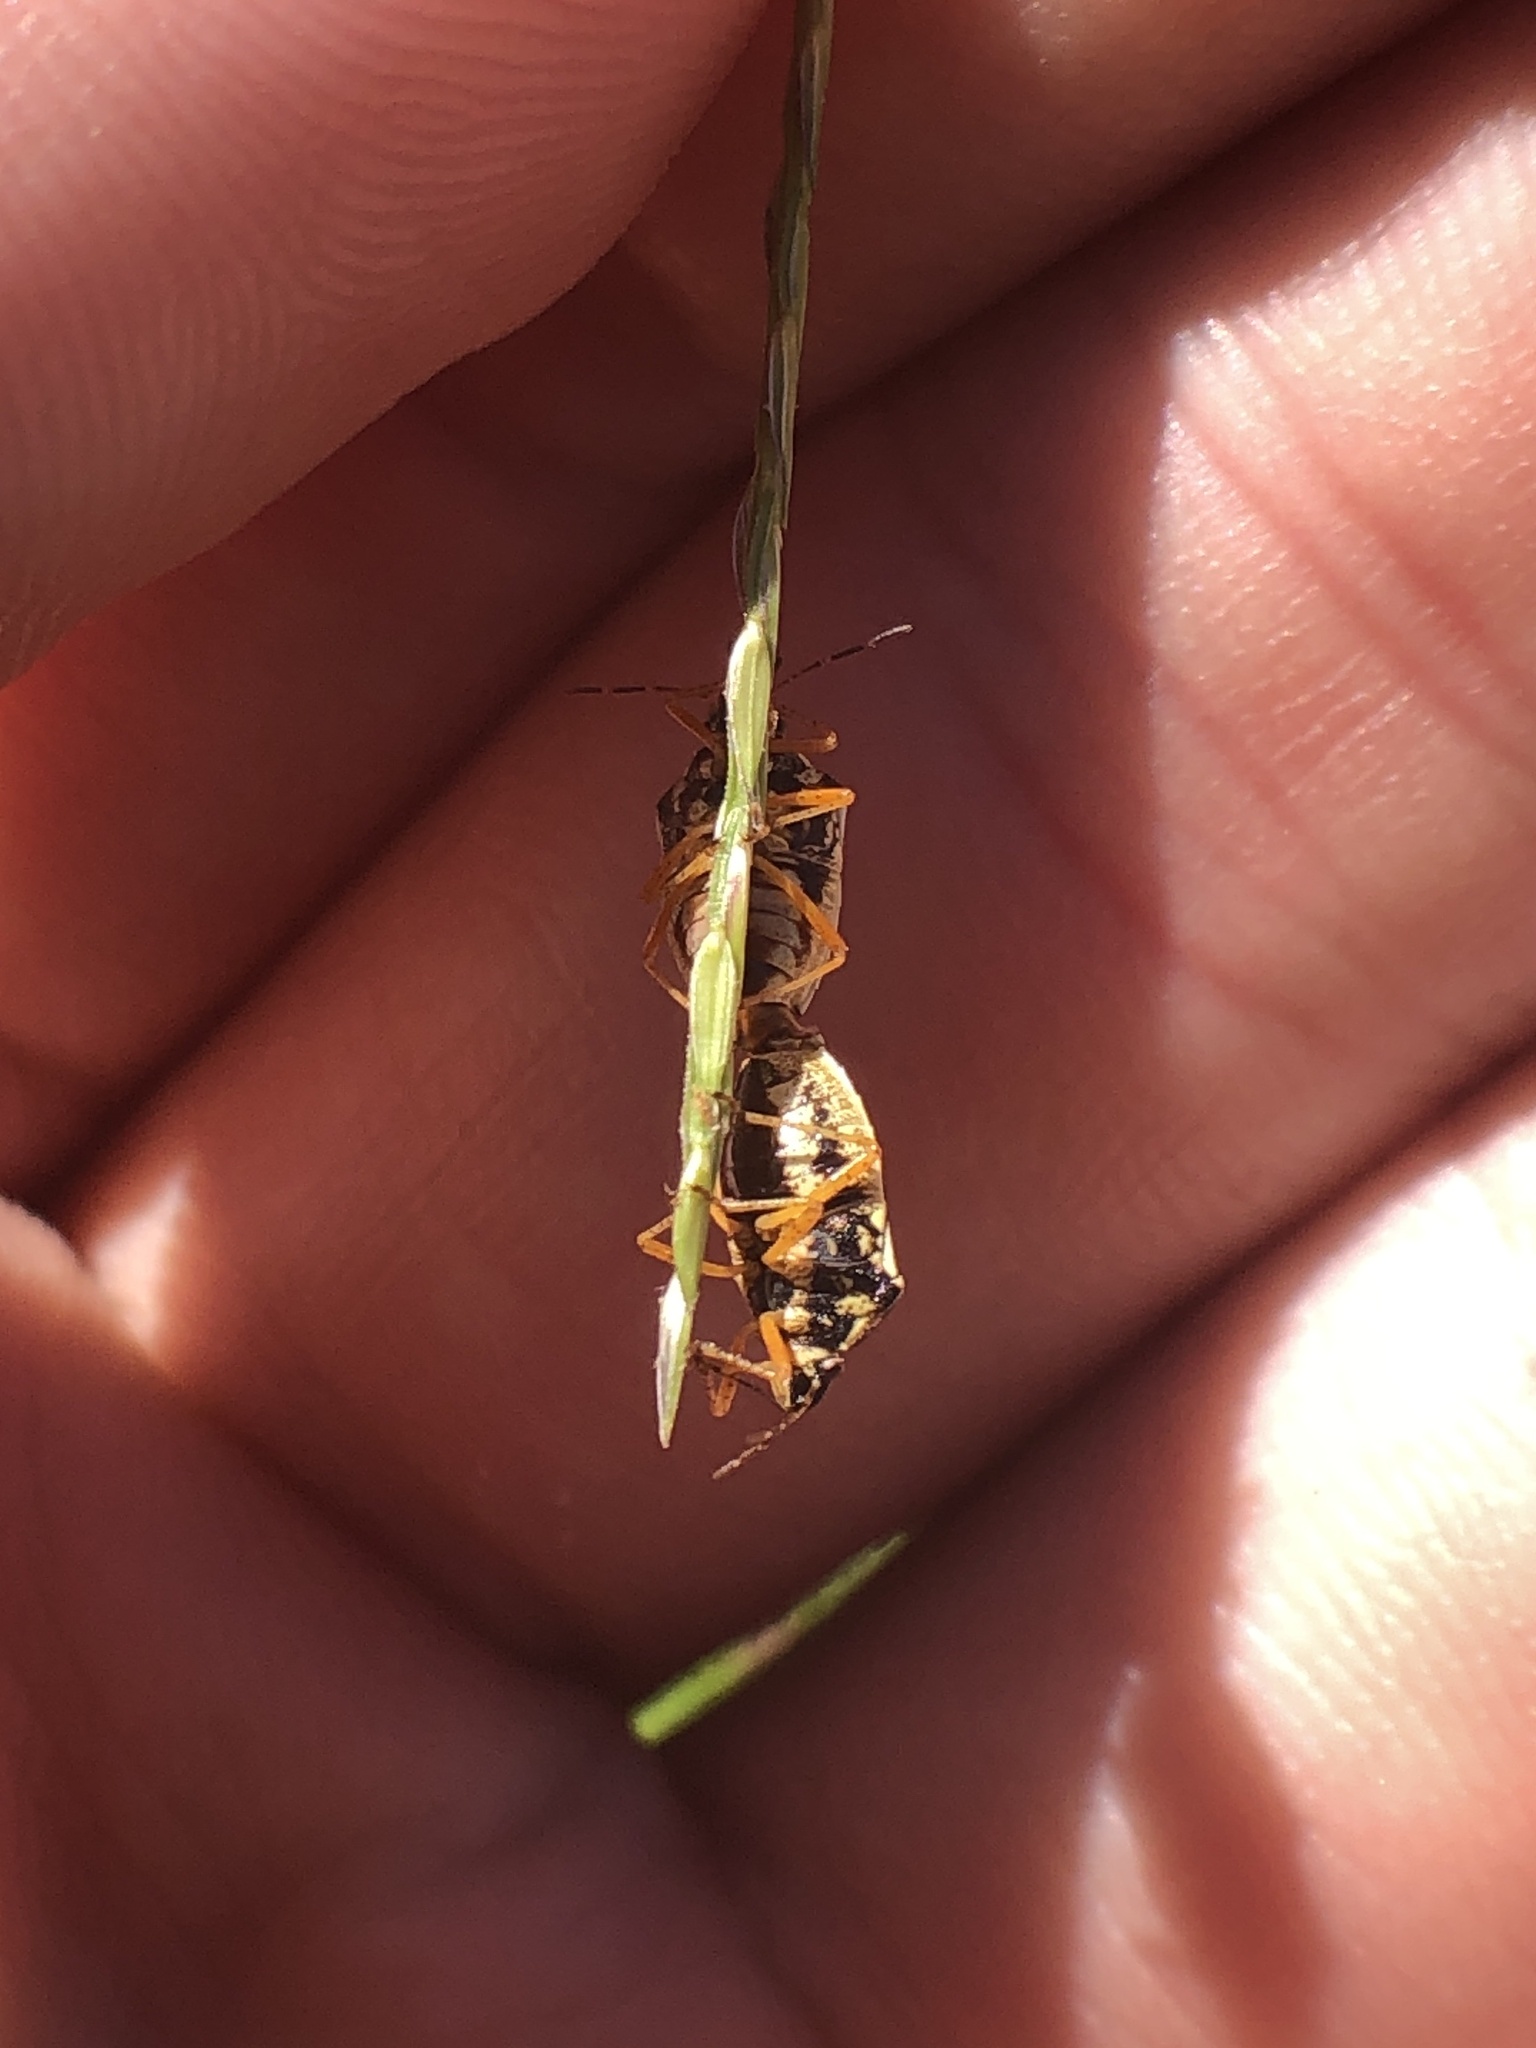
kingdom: Animalia
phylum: Arthropoda
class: Insecta
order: Hemiptera
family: Pentatomidae
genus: Mormidea
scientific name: Mormidea pama
